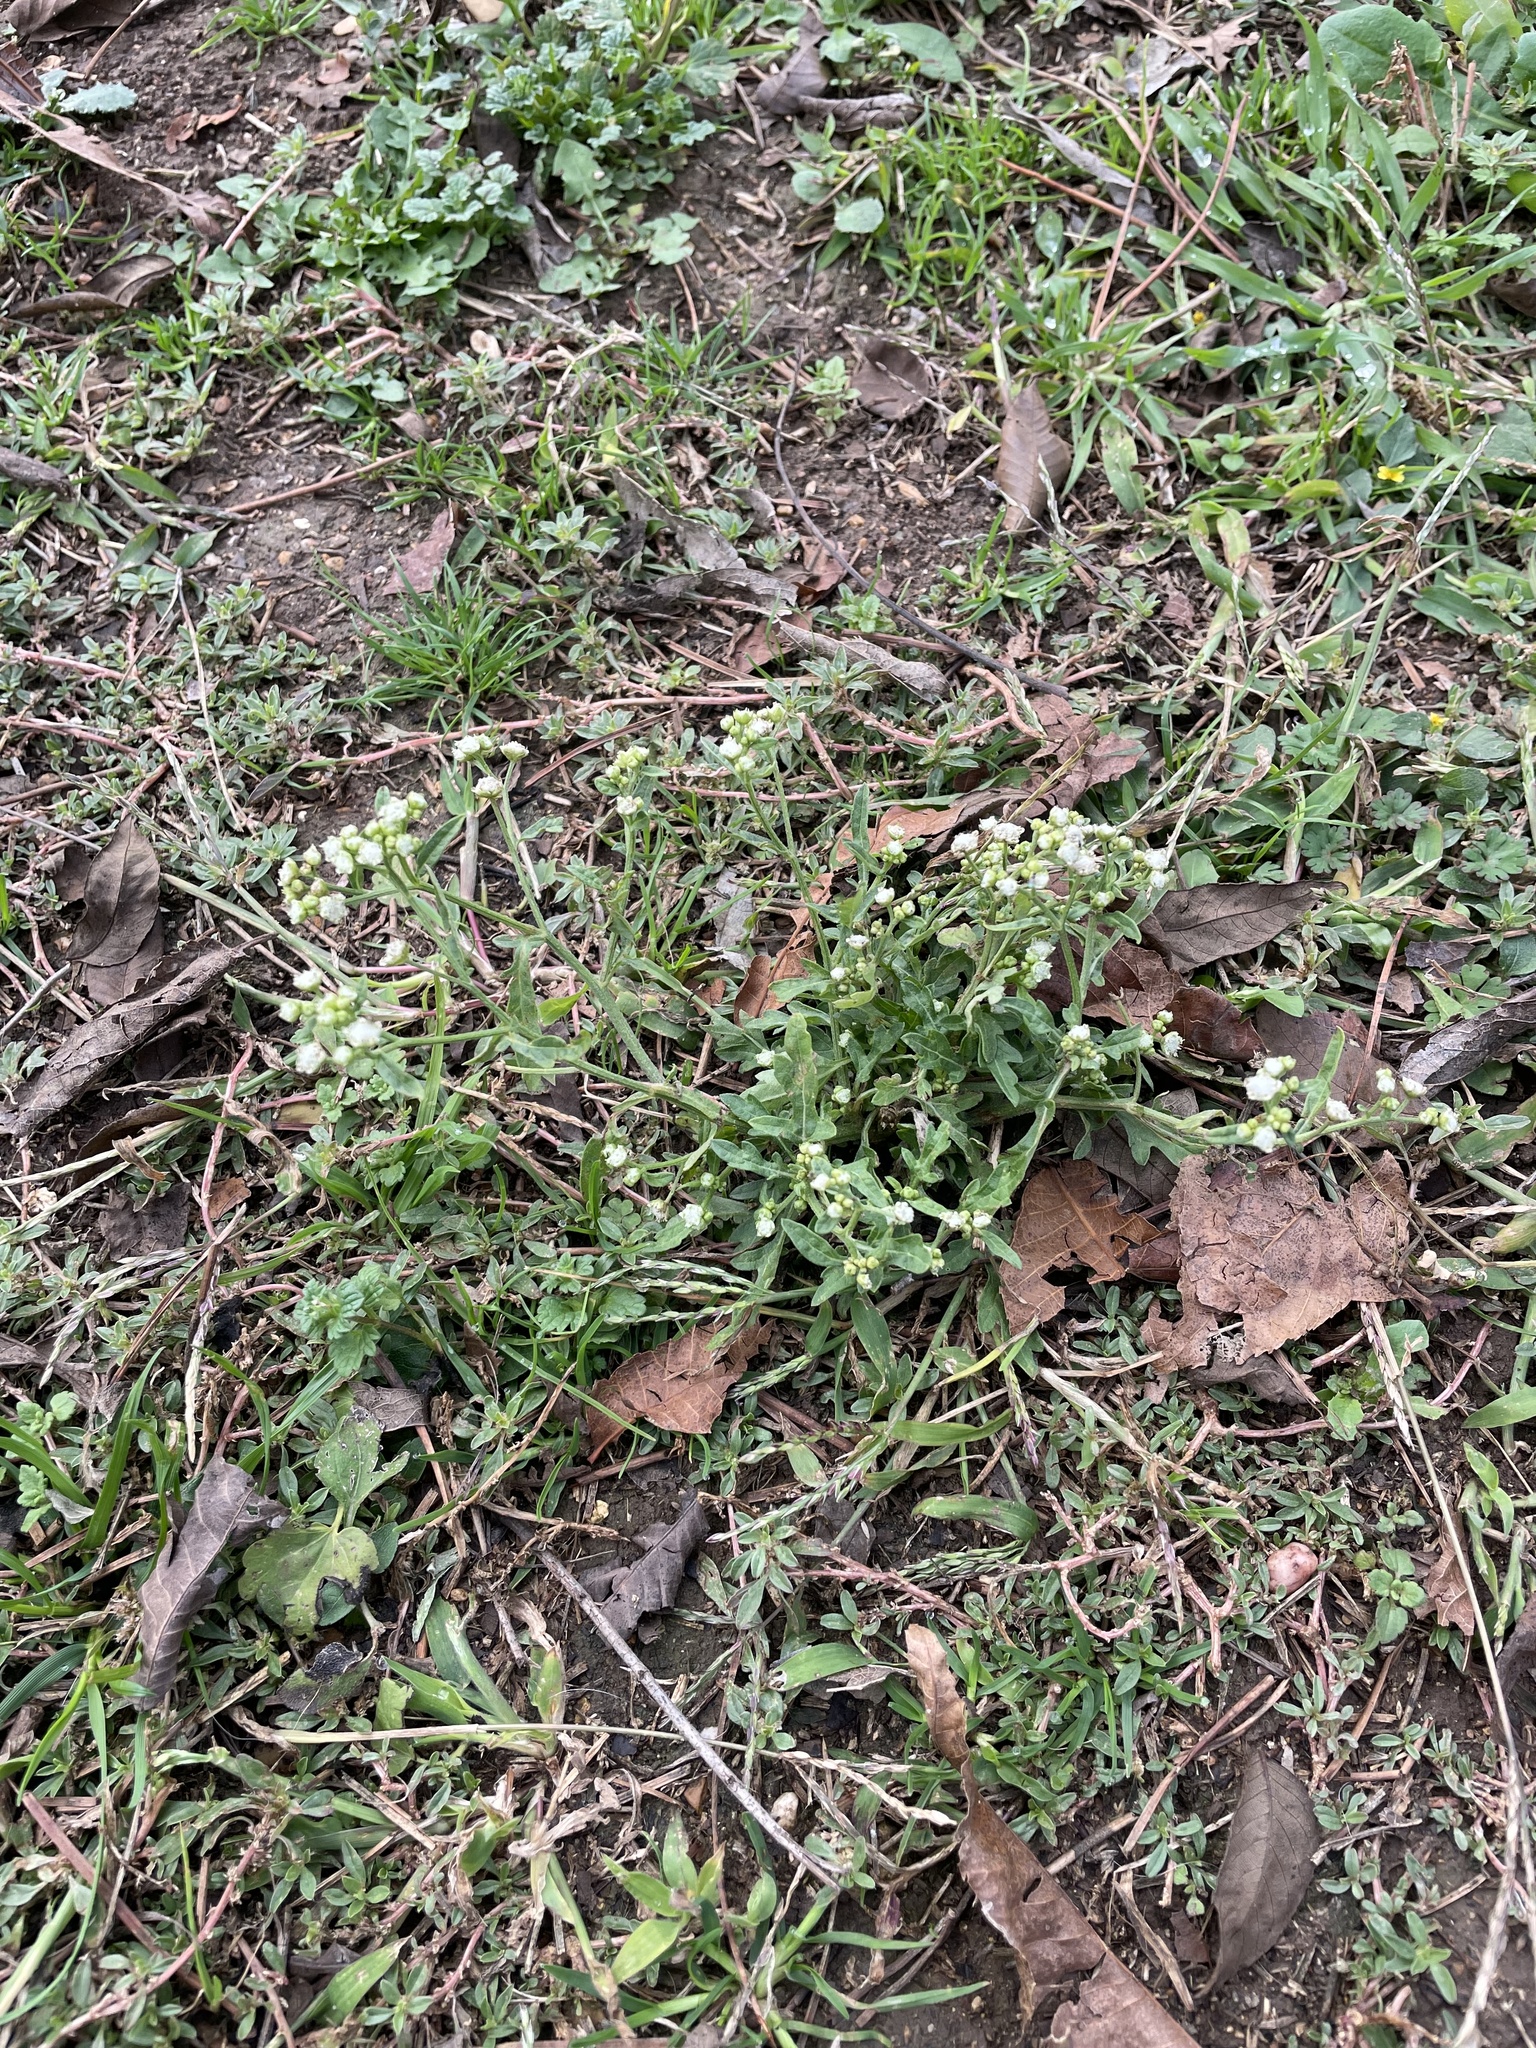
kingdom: Plantae
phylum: Tracheophyta
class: Magnoliopsida
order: Asterales
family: Asteraceae
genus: Parthenium
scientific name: Parthenium hysterophorus
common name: Santa maria feverfew
